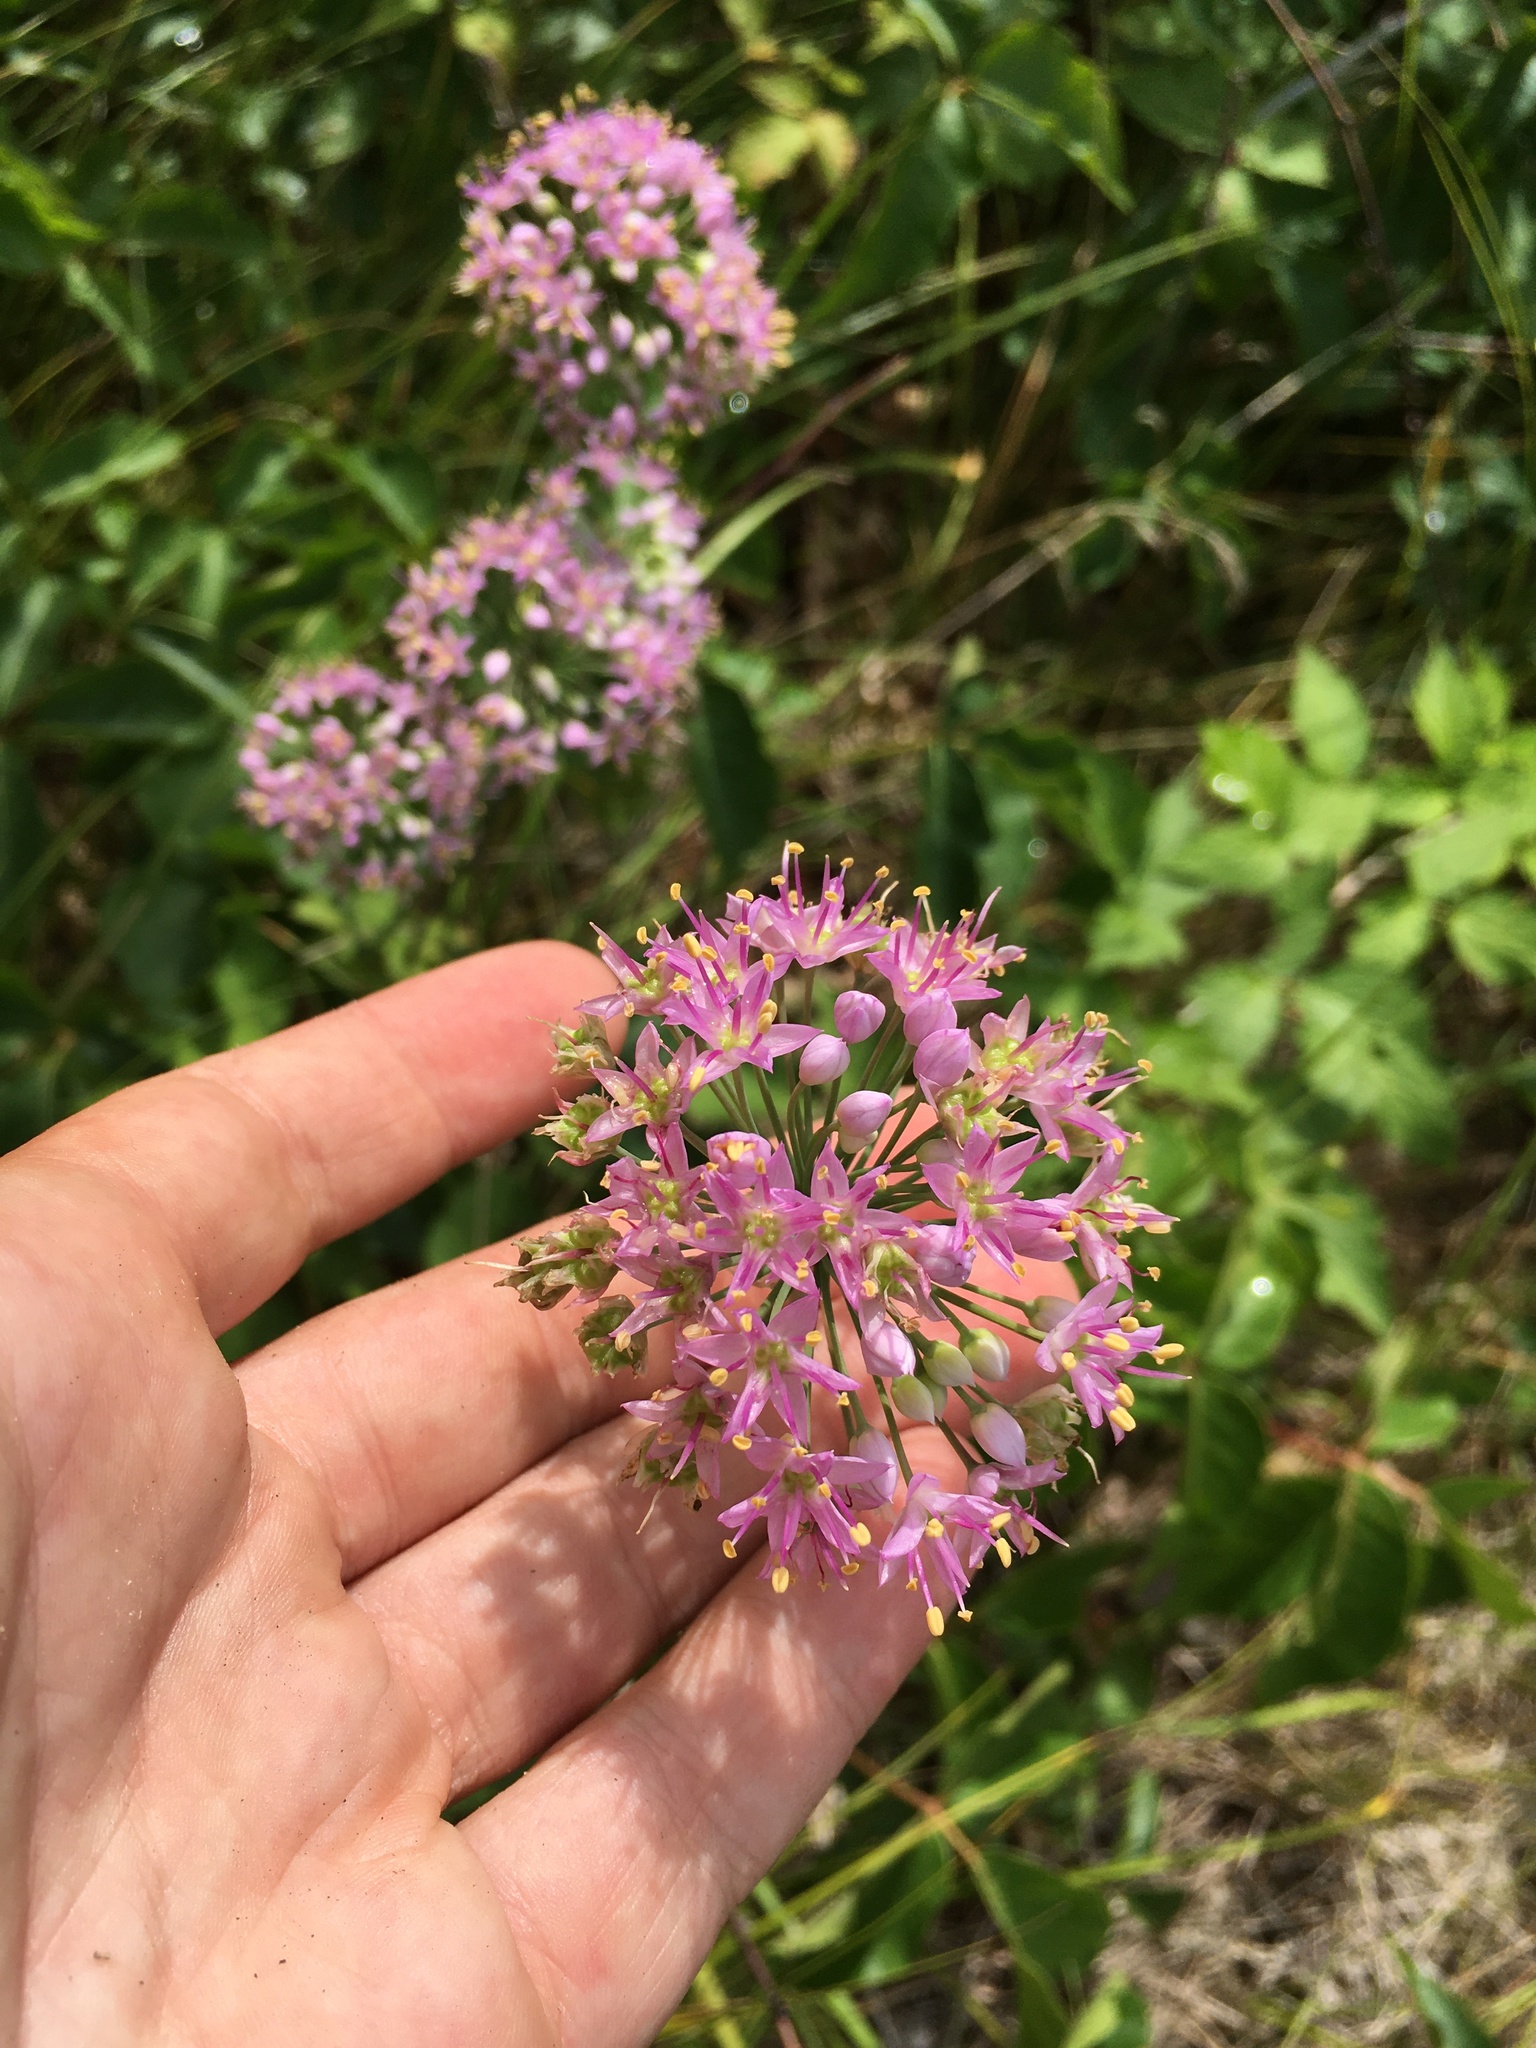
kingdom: Plantae
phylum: Tracheophyta
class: Liliopsida
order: Asparagales
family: Amaryllidaceae
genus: Allium
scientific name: Allium stellatum
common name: Autumn onion
